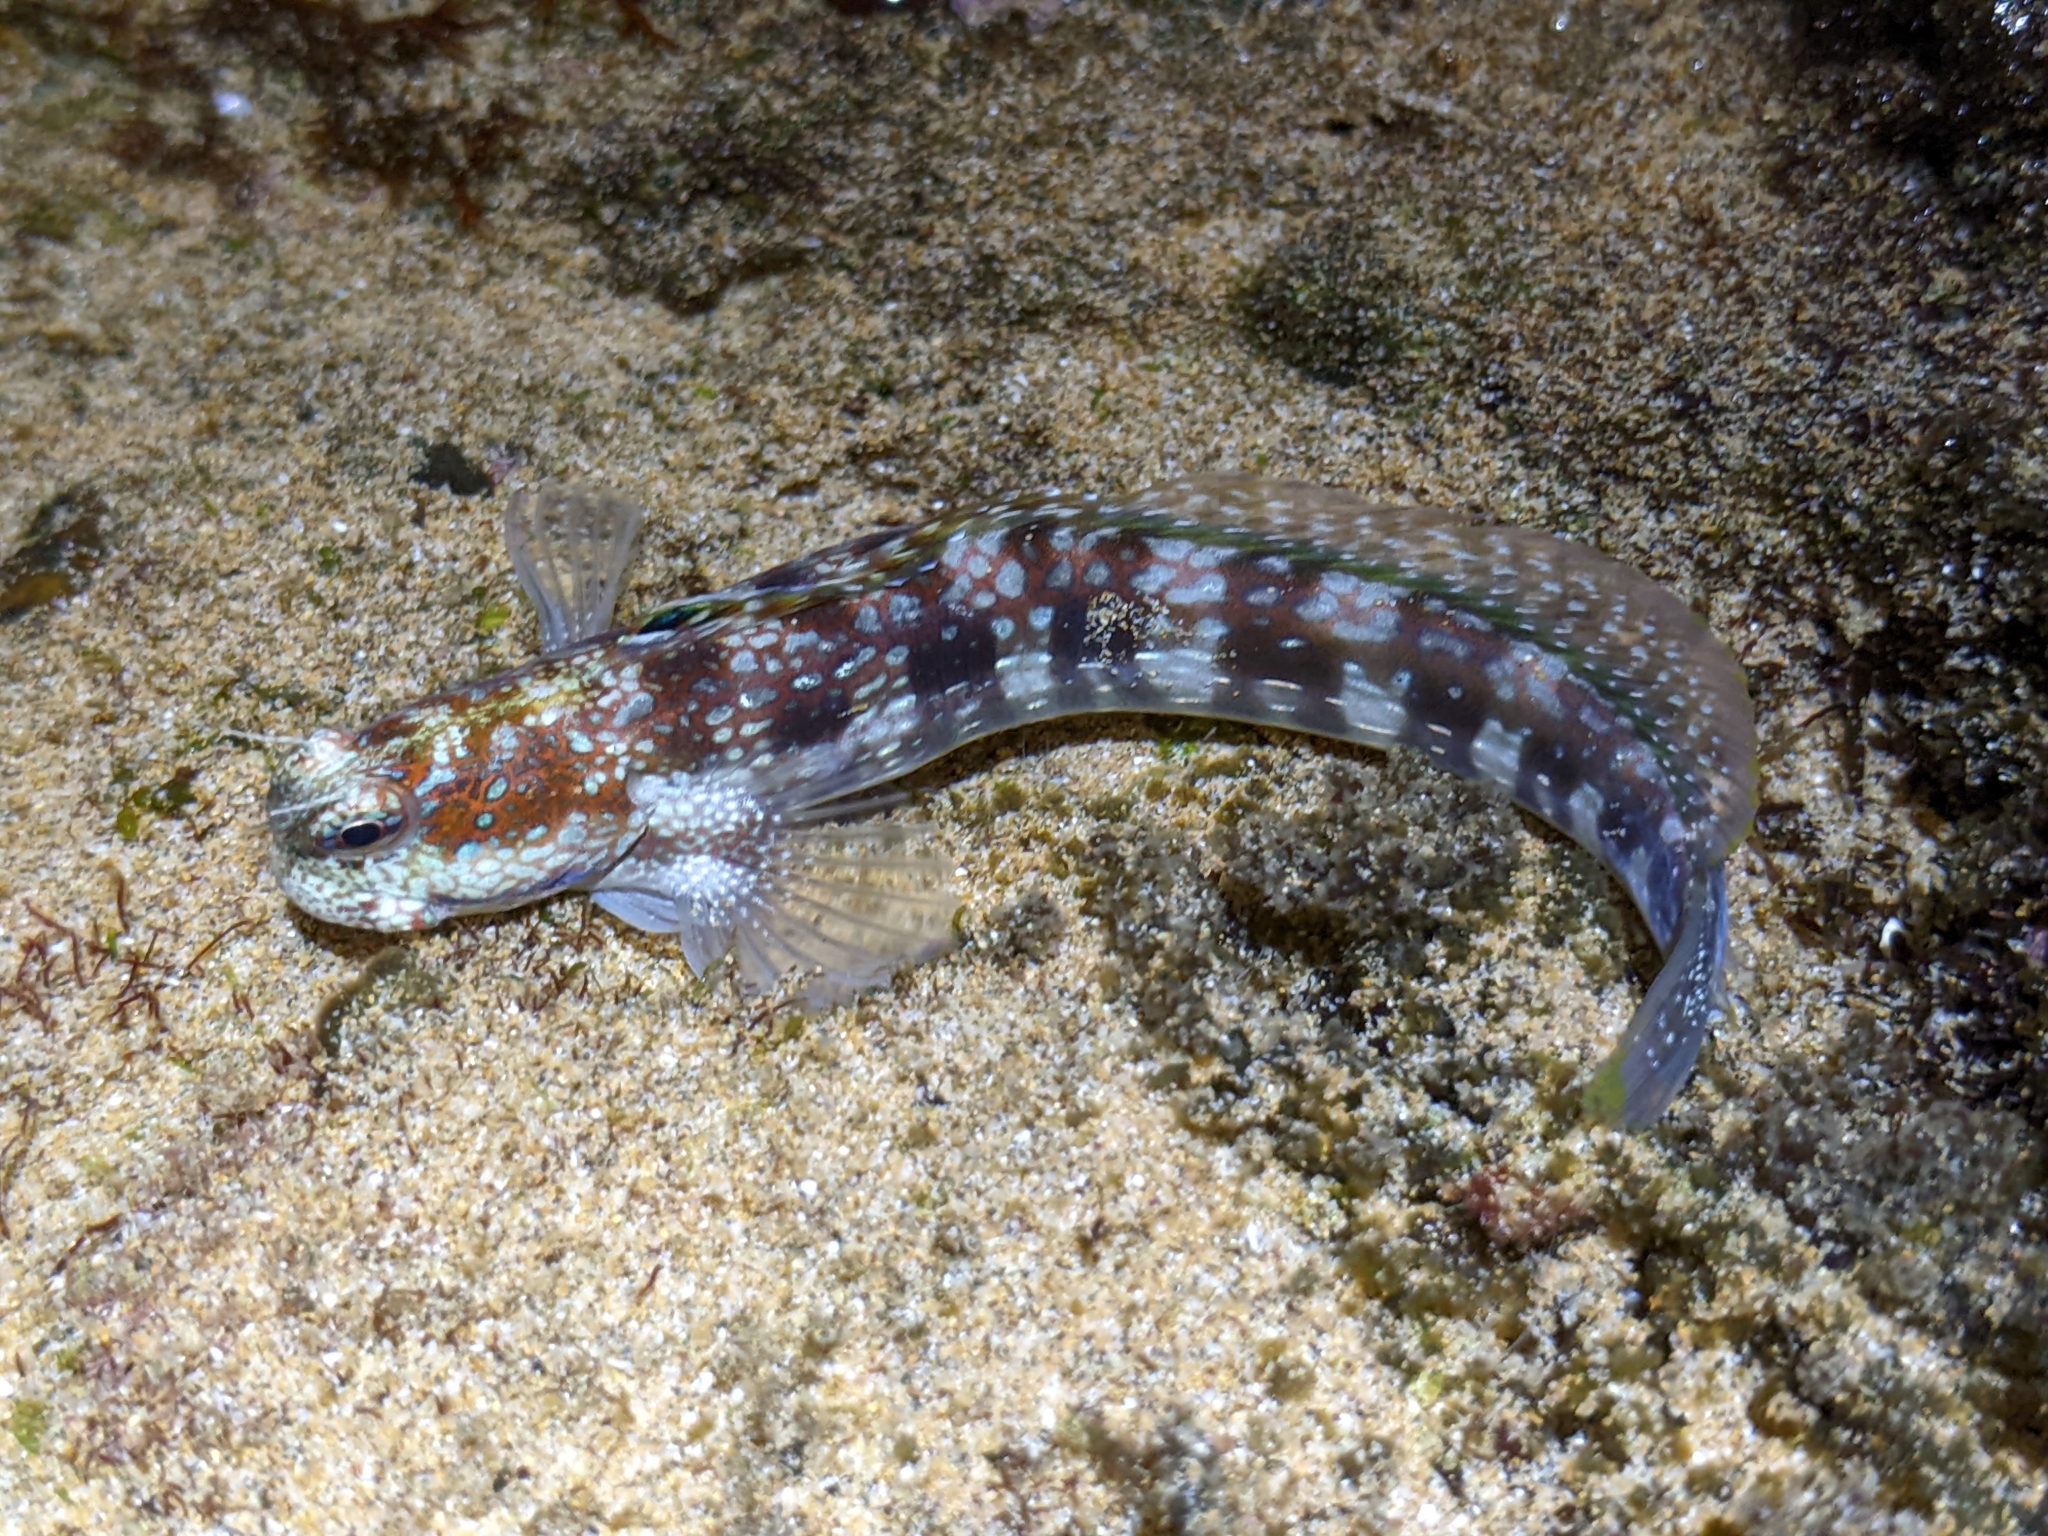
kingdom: Animalia
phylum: Chordata
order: Perciformes
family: Blenniidae
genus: Blenniella
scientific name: Blenniella gibbifrons
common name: Picture rockskipper
